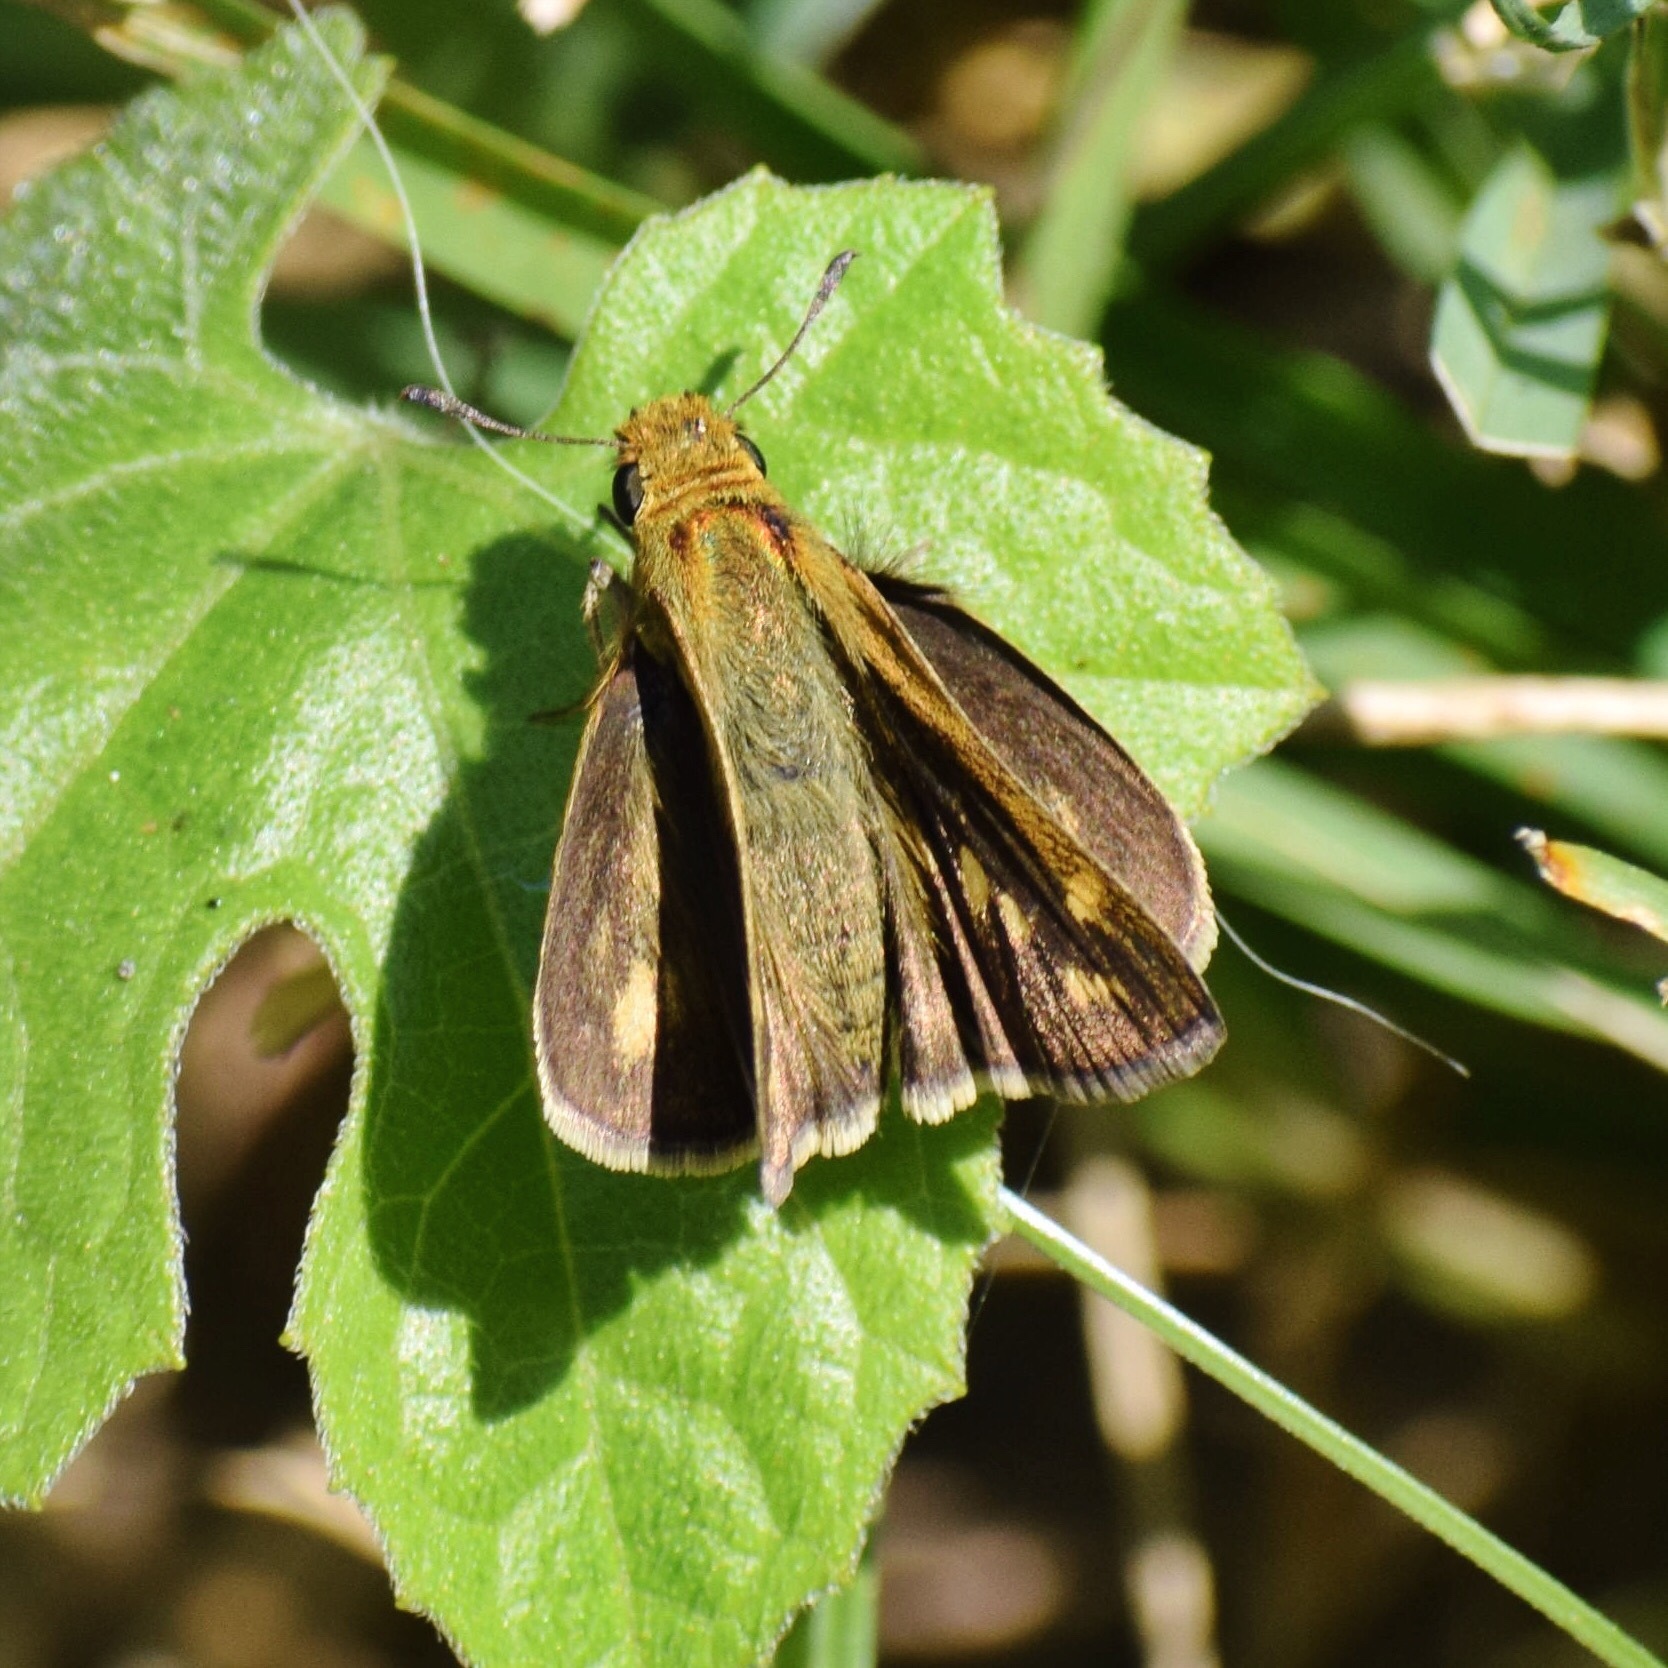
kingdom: Animalia
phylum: Arthropoda
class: Insecta
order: Lepidoptera
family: Hesperiidae
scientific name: Hesperiidae
